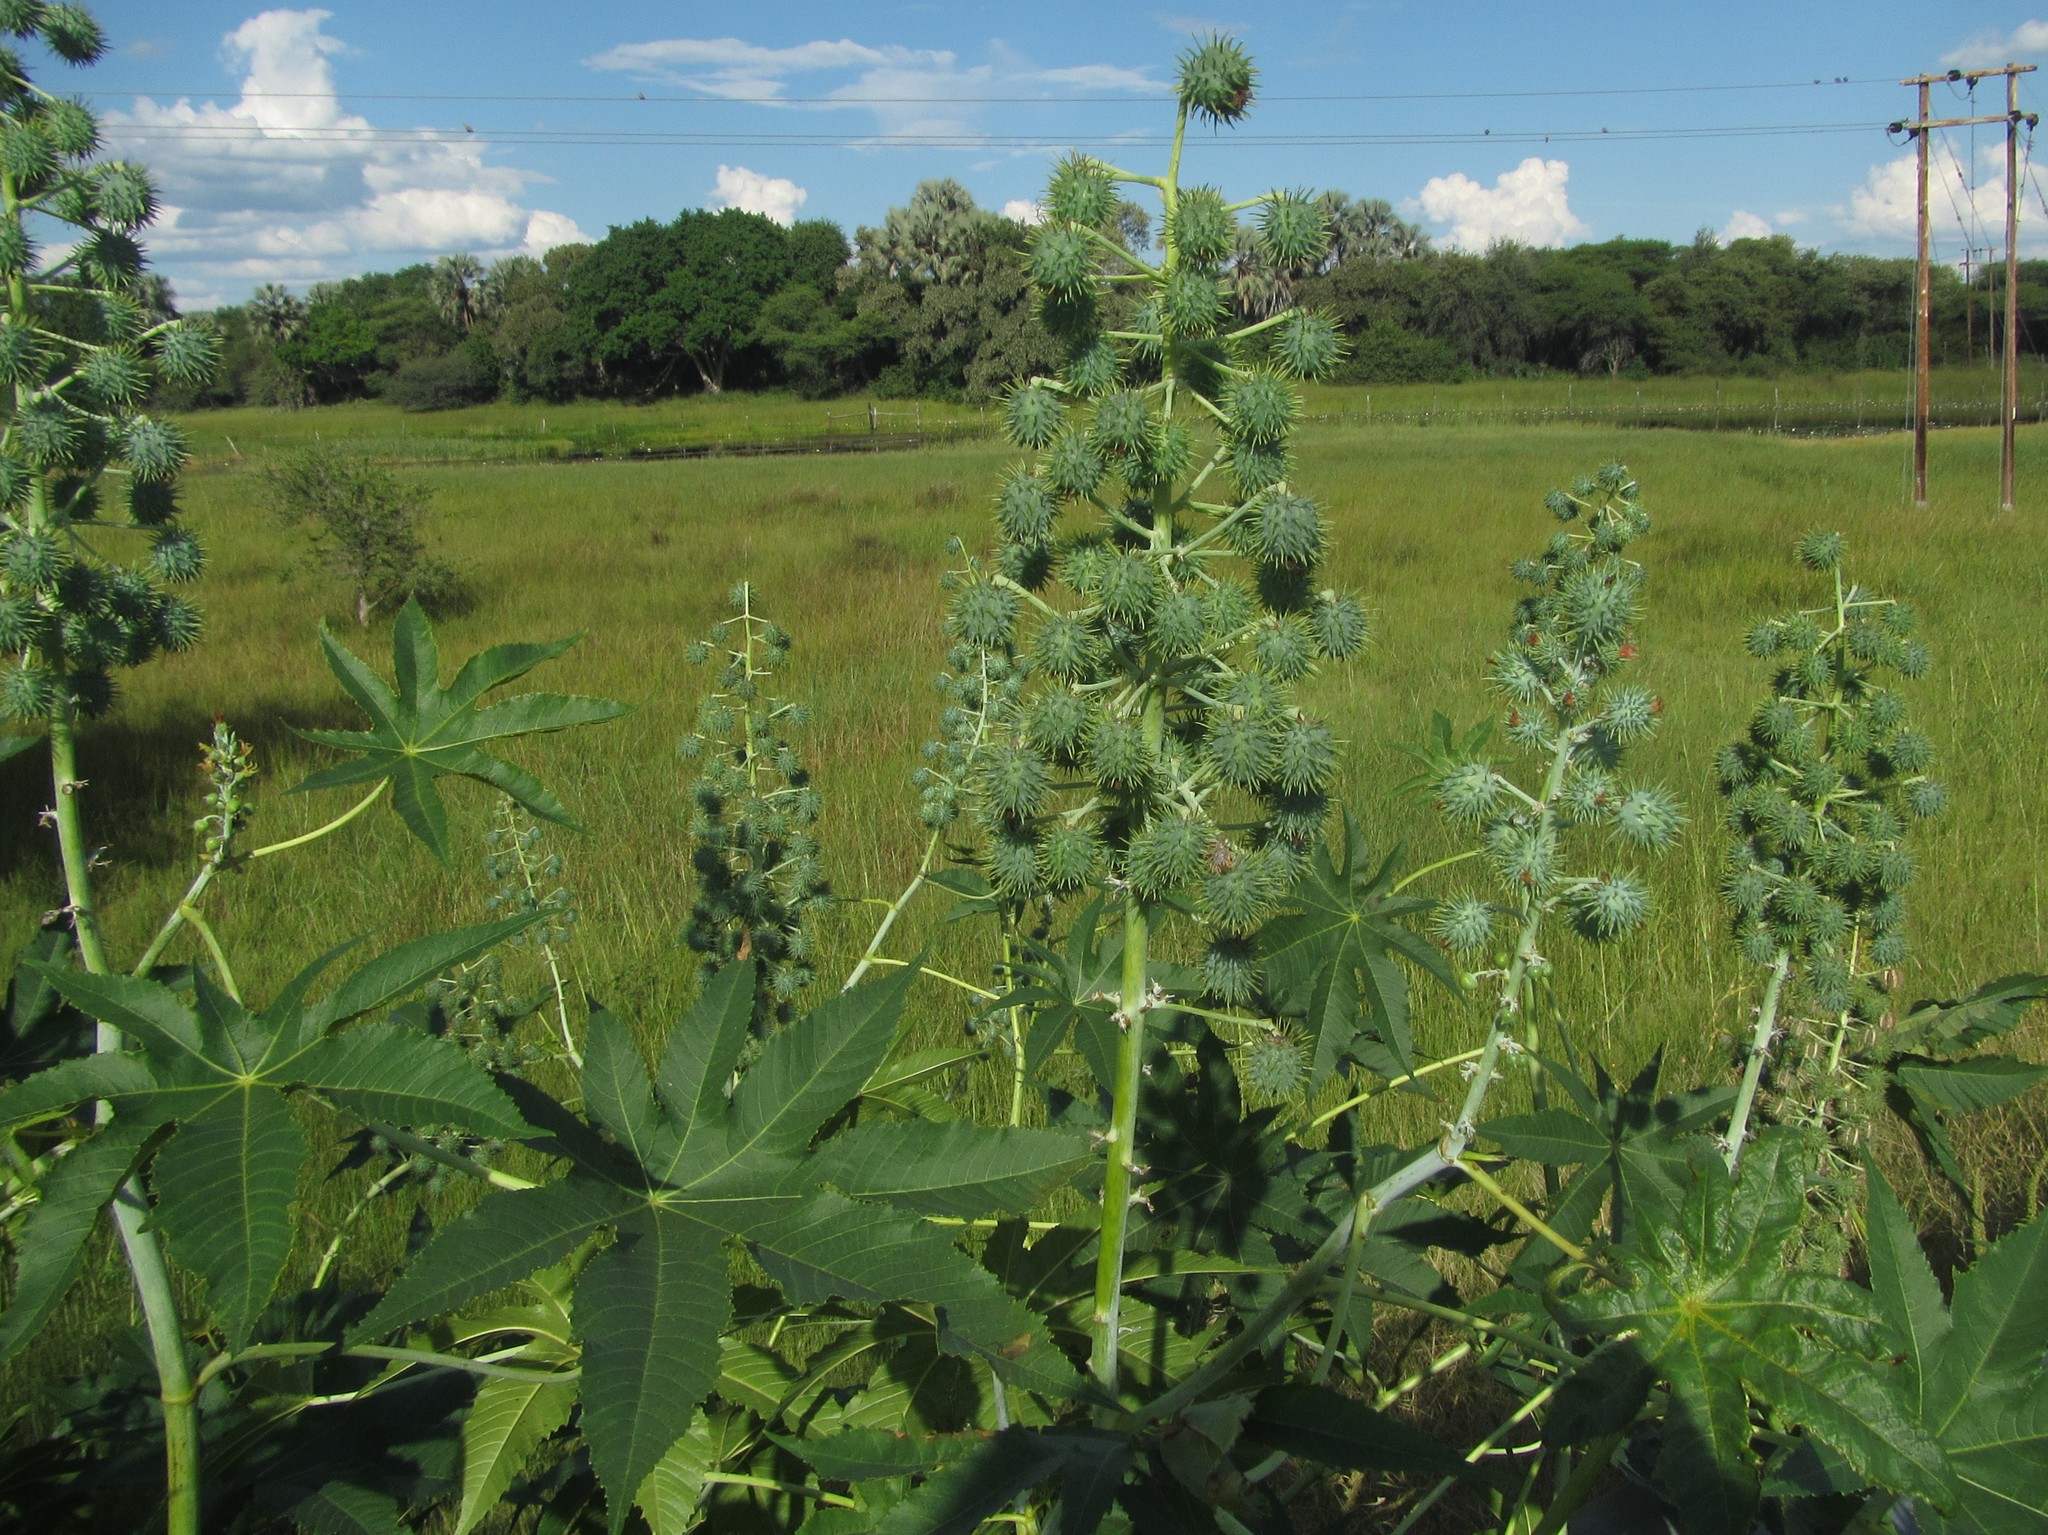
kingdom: Plantae
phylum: Tracheophyta
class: Magnoliopsida
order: Malpighiales
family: Euphorbiaceae
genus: Ricinus
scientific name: Ricinus communis
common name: Castor-oil-plant
